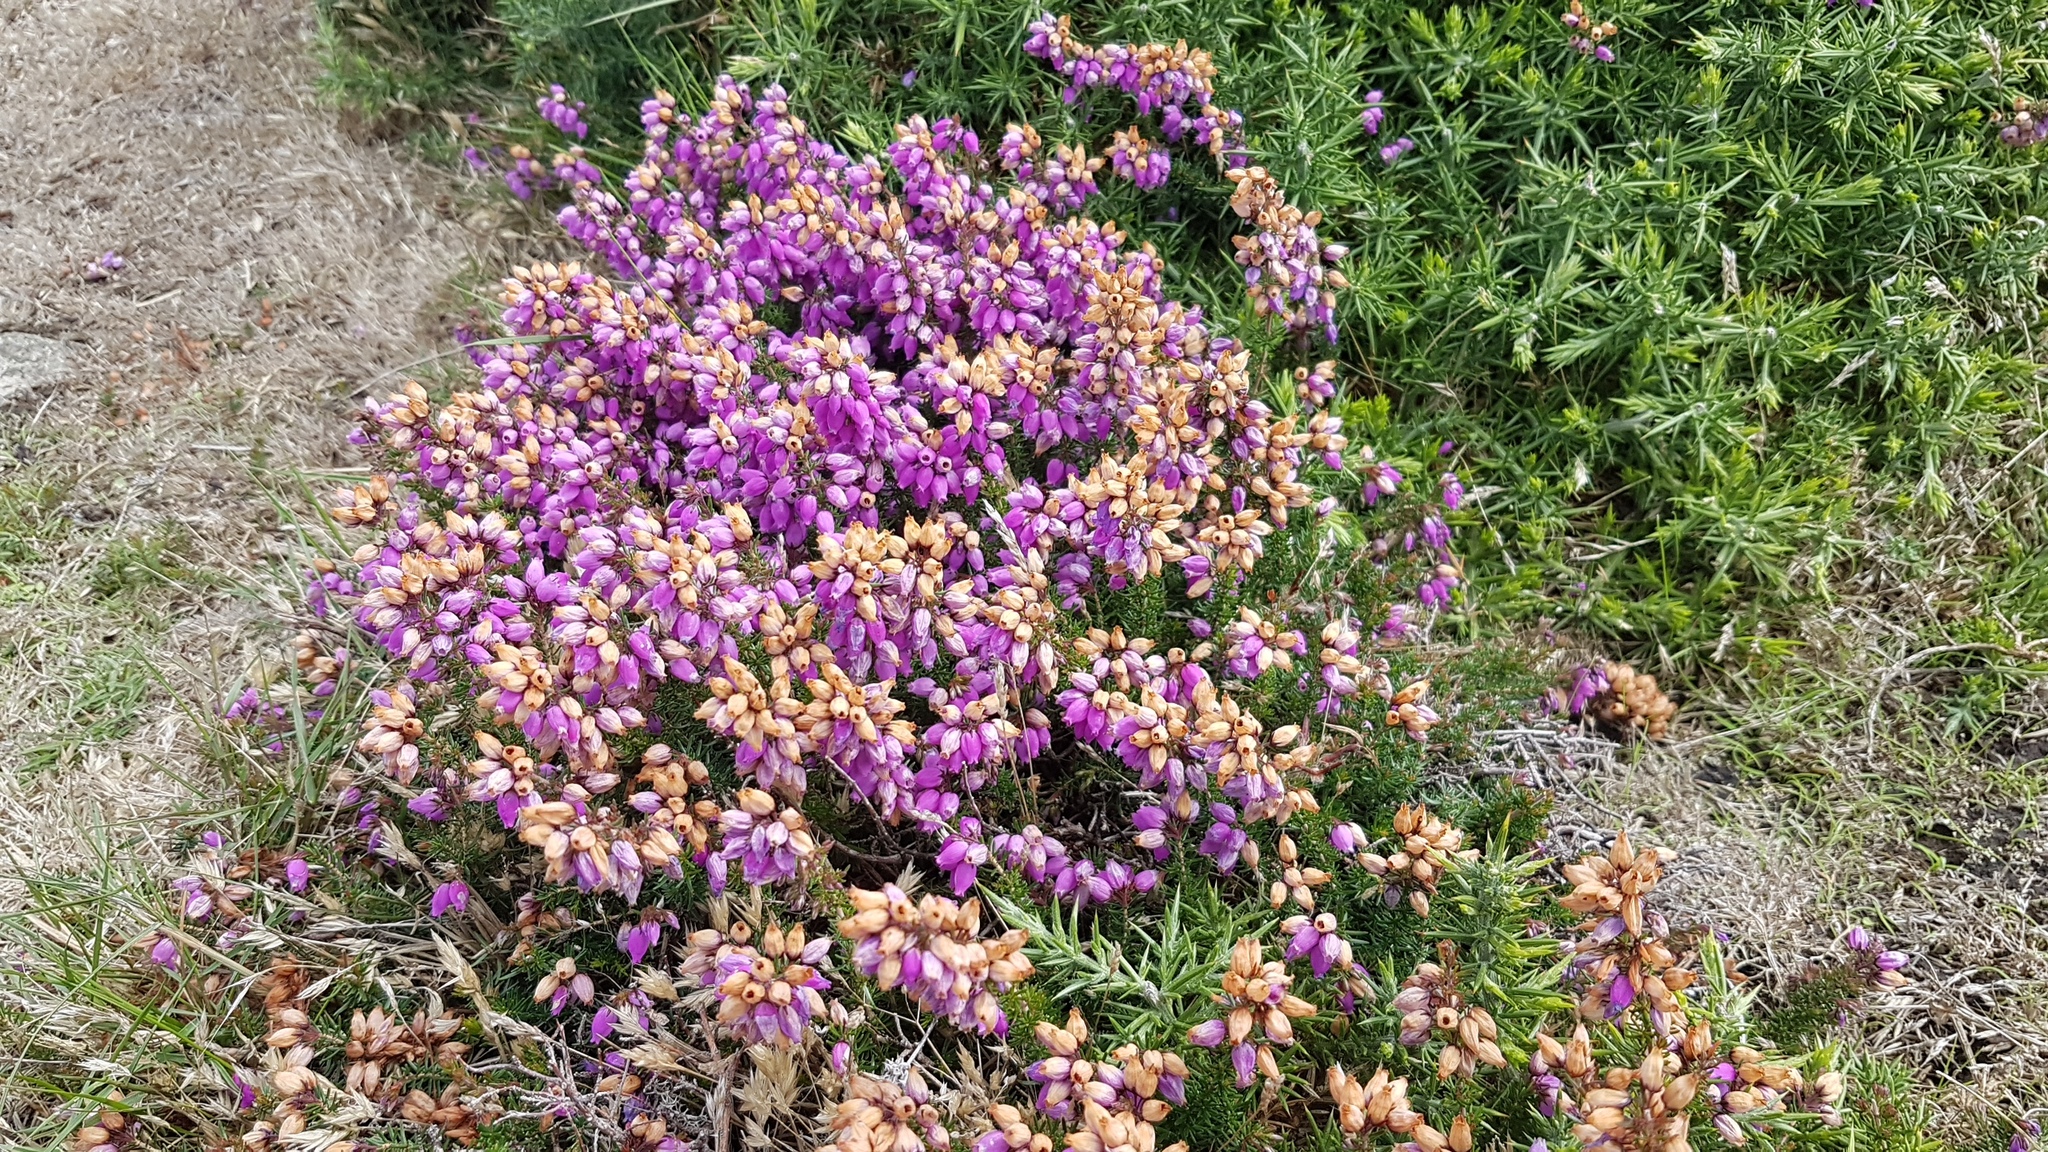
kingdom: Plantae
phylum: Tracheophyta
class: Magnoliopsida
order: Ericales
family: Ericaceae
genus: Erica
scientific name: Erica cinerea
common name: Bell heather
